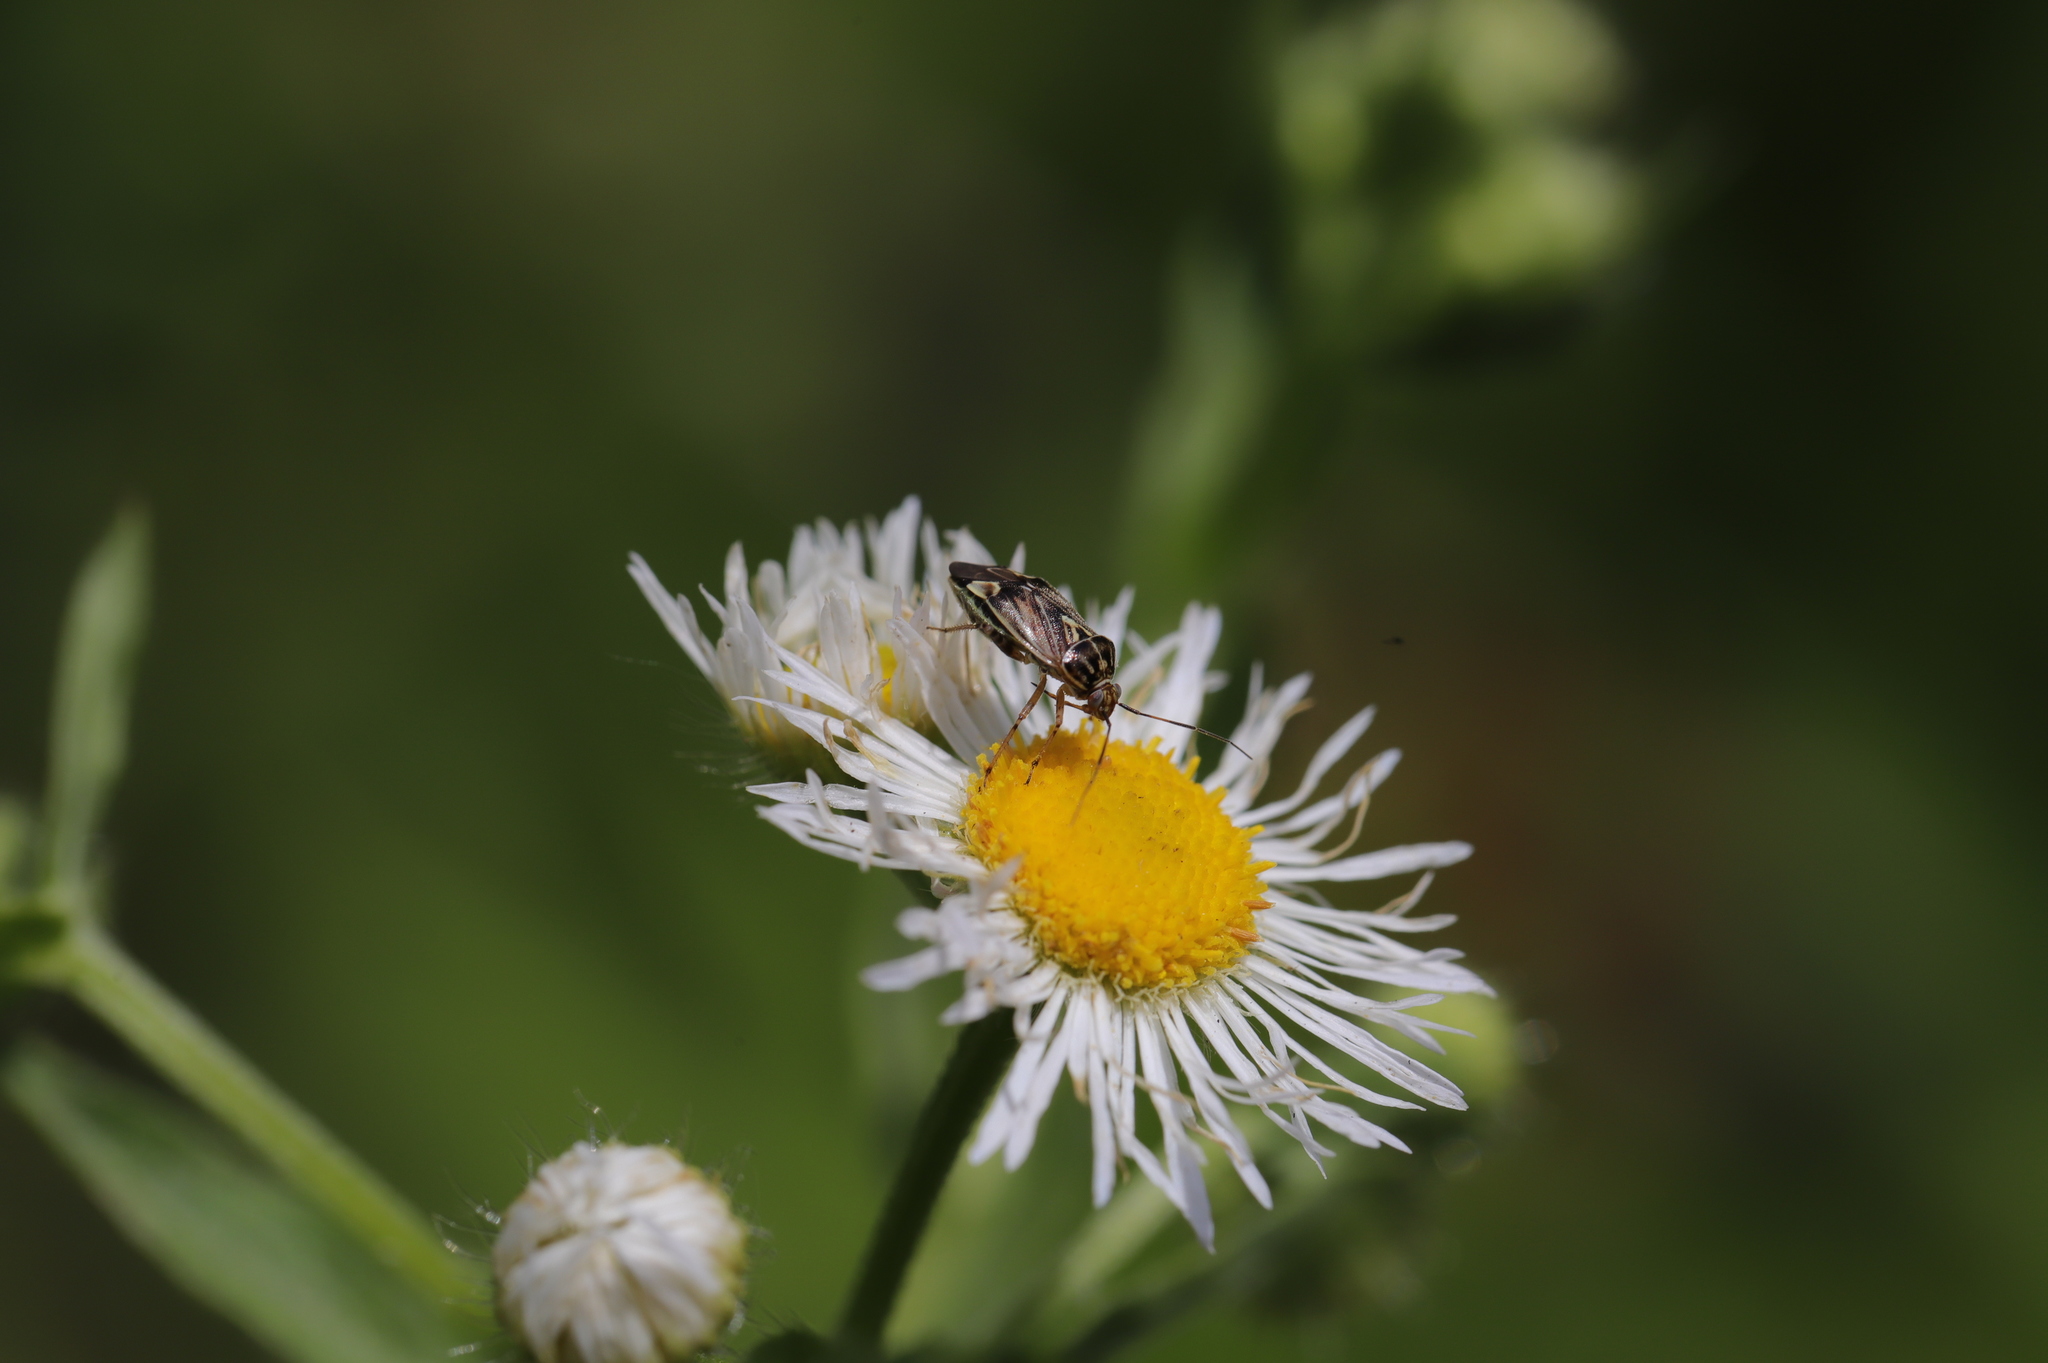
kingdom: Animalia
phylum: Arthropoda
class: Insecta
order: Hemiptera
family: Miridae
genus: Lygus
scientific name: Lygus lineolaris
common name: North american tarnished plant bug
